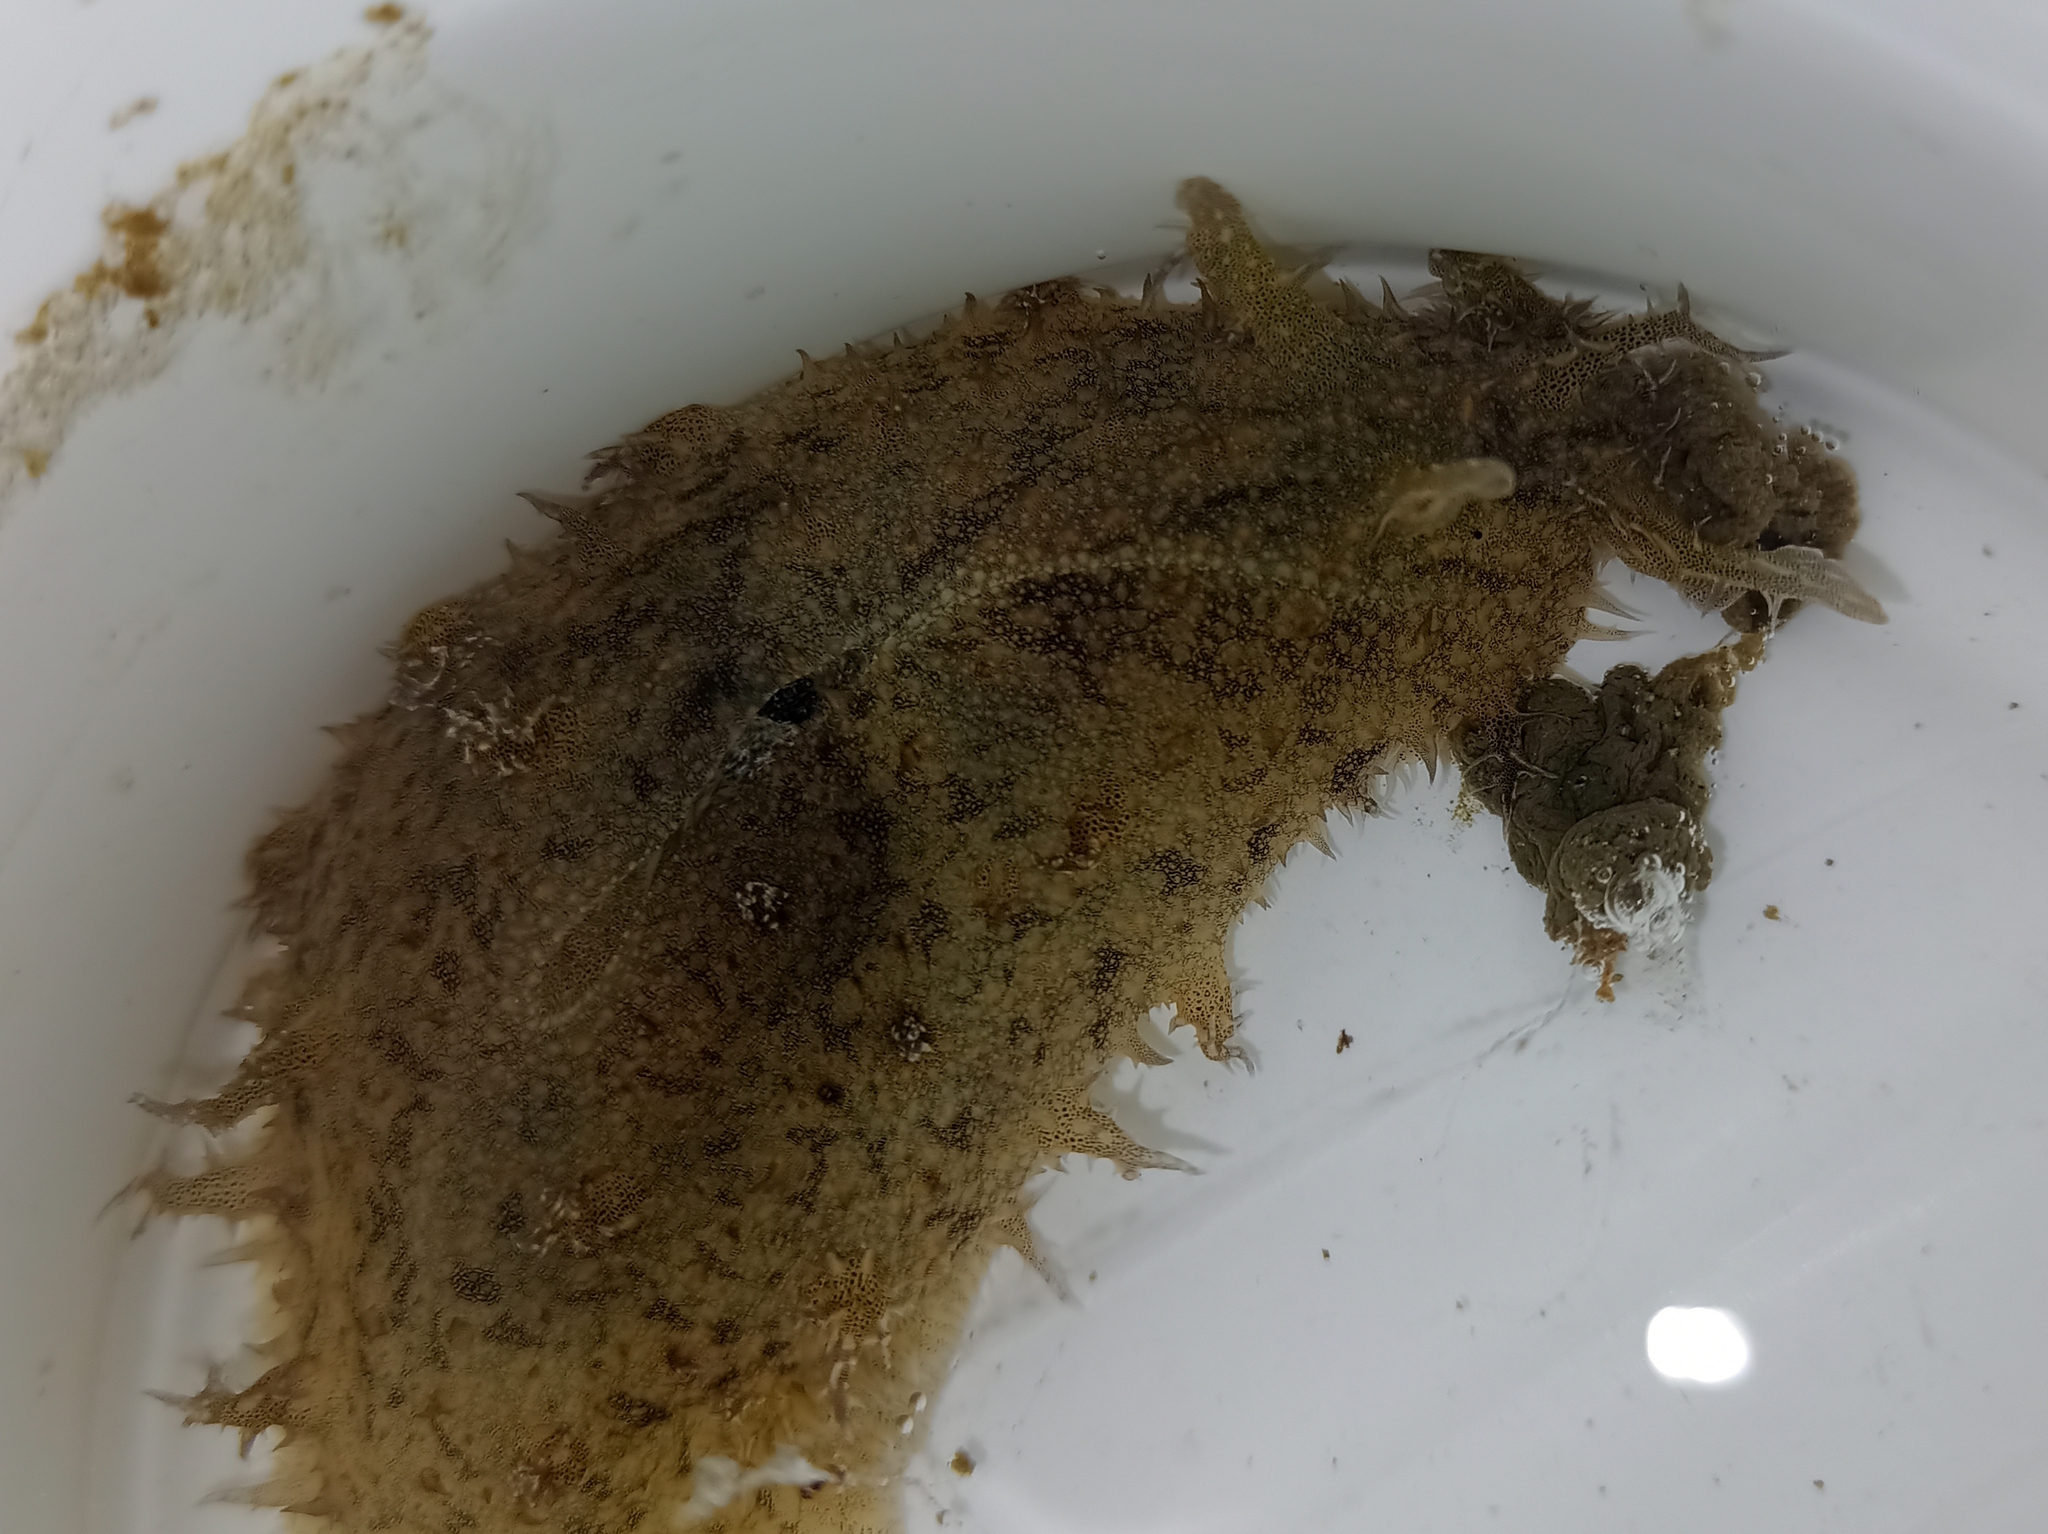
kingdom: Animalia
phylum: Mollusca
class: Gastropoda
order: Aplysiida
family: Aplysiidae
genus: Bursatella
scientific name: Bursatella leachii
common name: Shaggy sea hare
